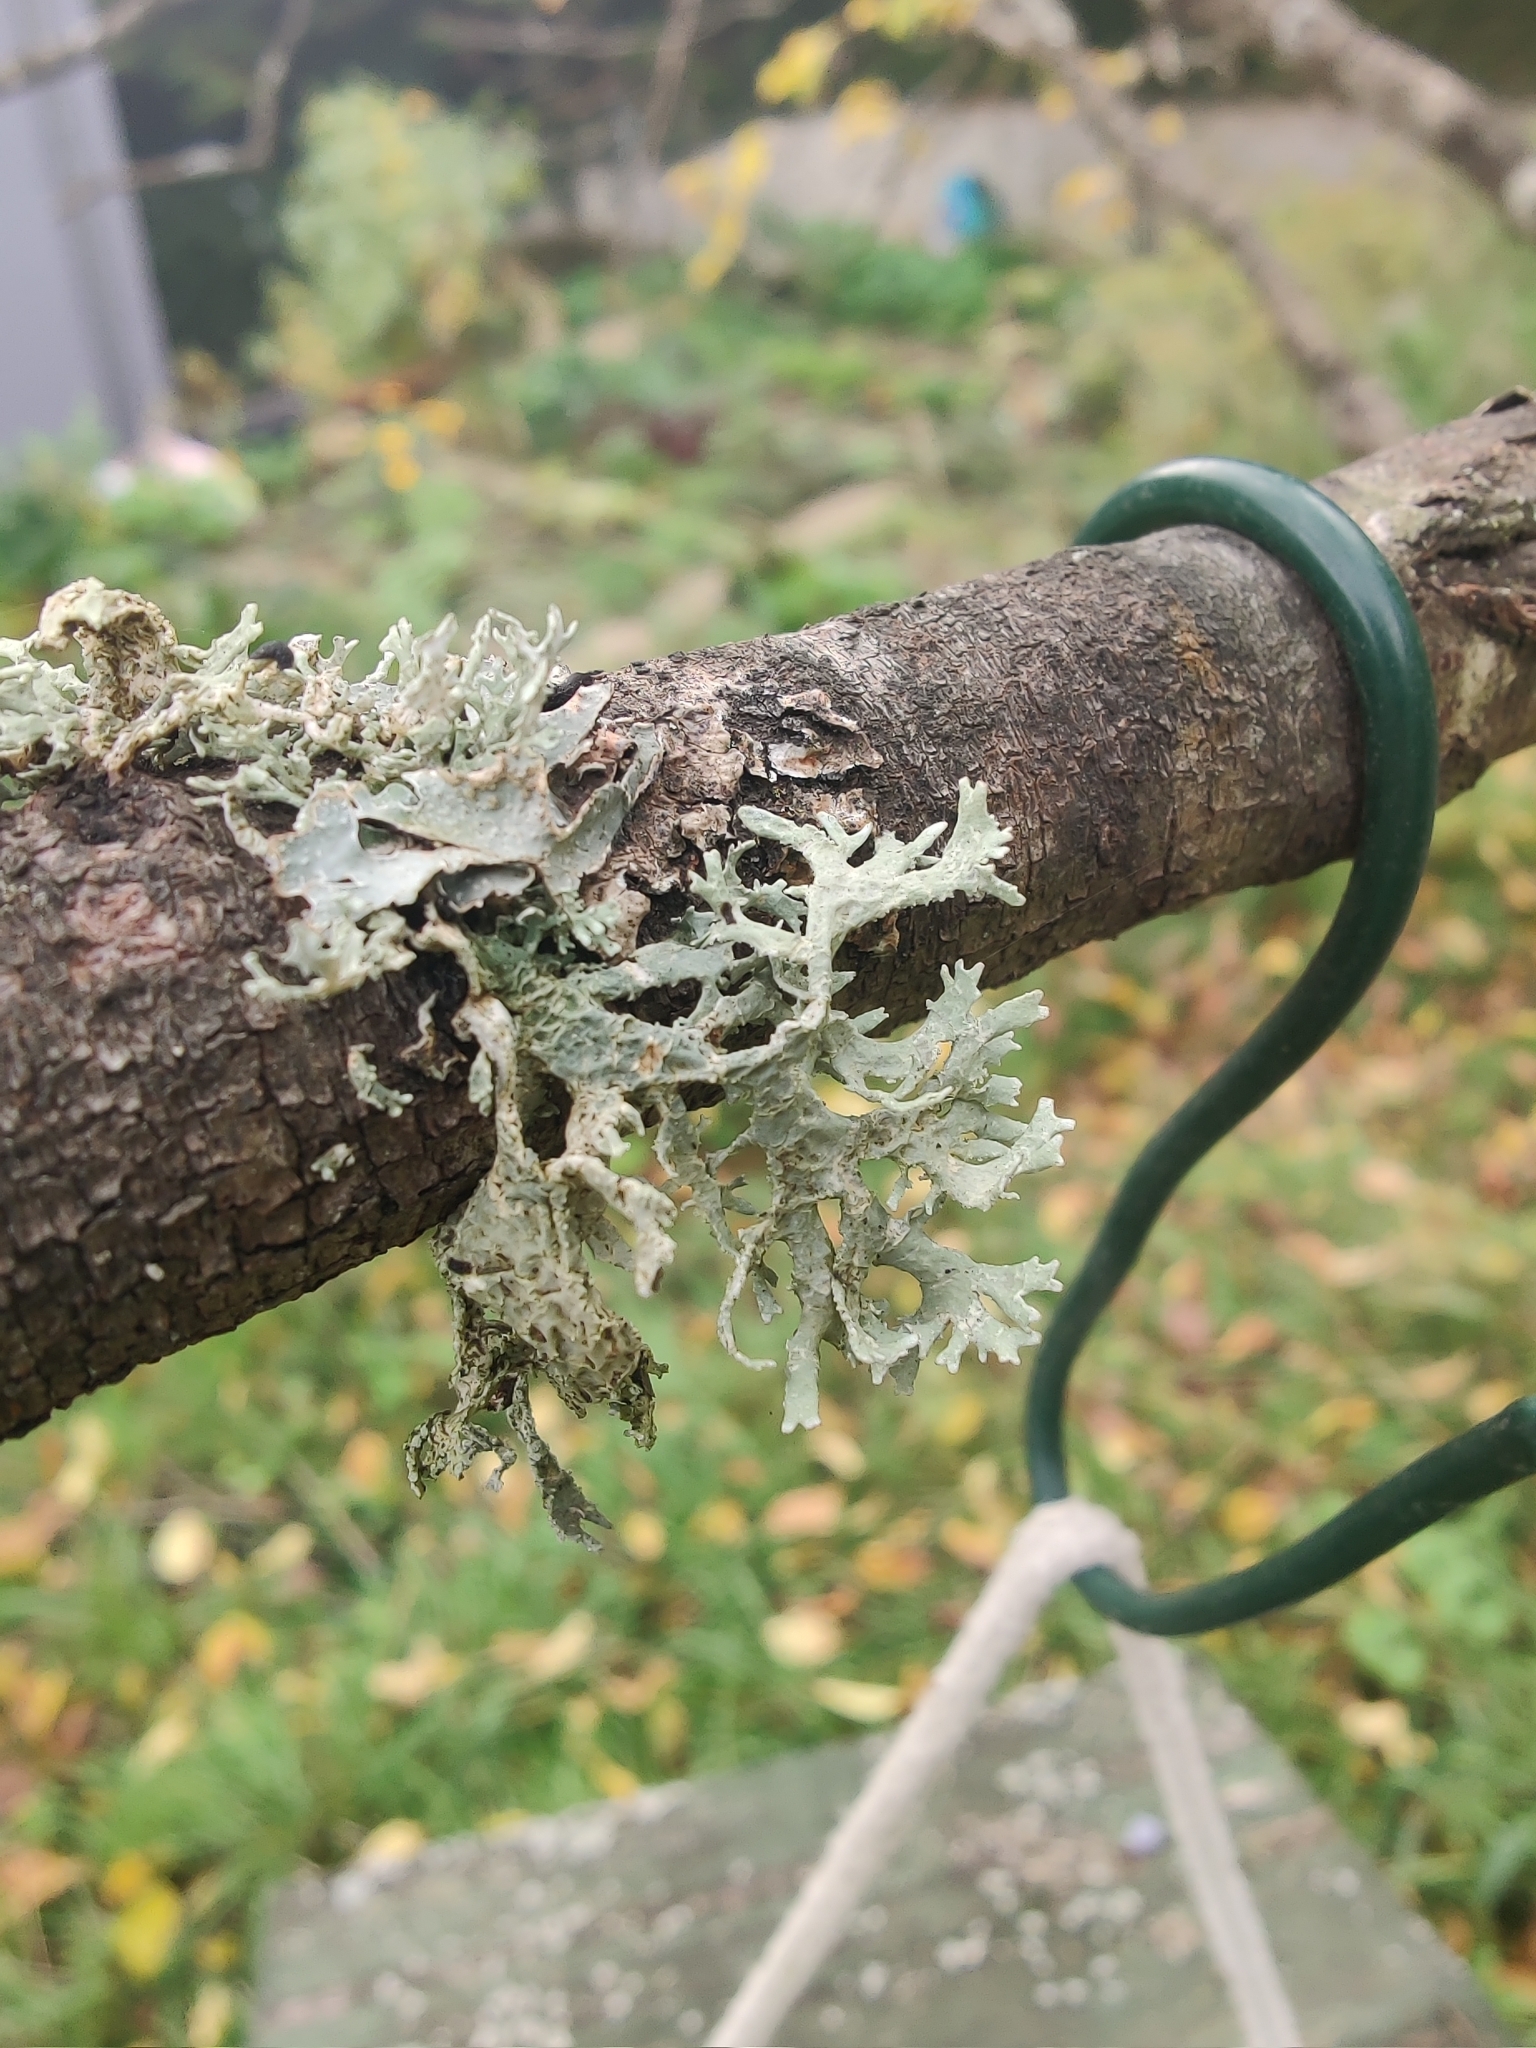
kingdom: Fungi
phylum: Ascomycota
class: Lecanoromycetes
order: Lecanorales
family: Parmeliaceae
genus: Evernia
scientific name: Evernia prunastri
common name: Oak moss
